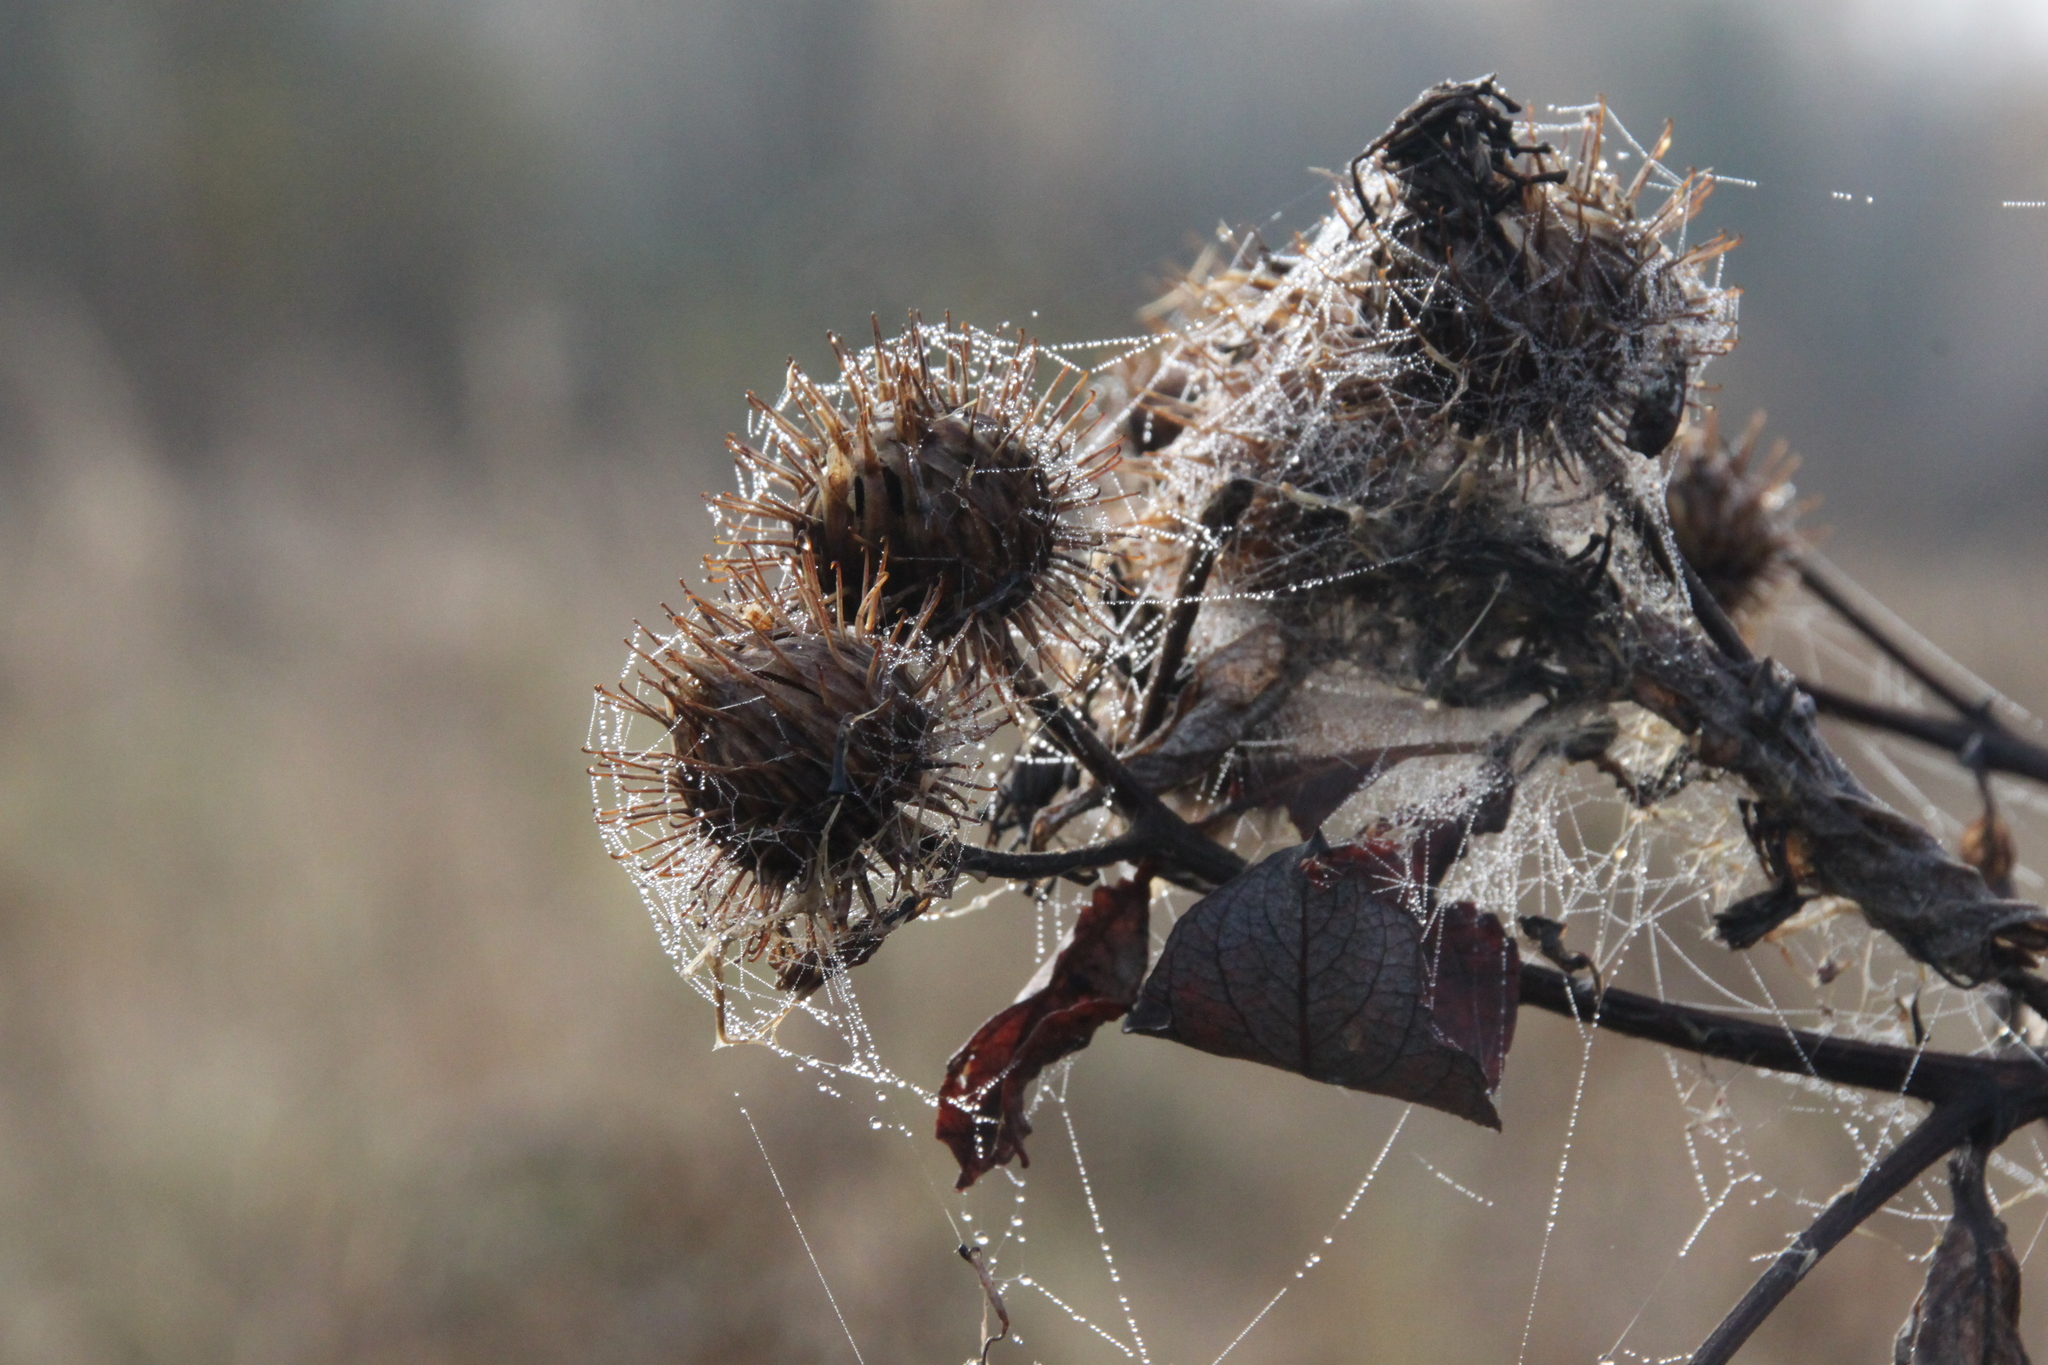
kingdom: Plantae
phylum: Tracheophyta
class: Magnoliopsida
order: Asterales
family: Asteraceae
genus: Arctium
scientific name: Arctium tomentosum
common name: Woolly burdock
